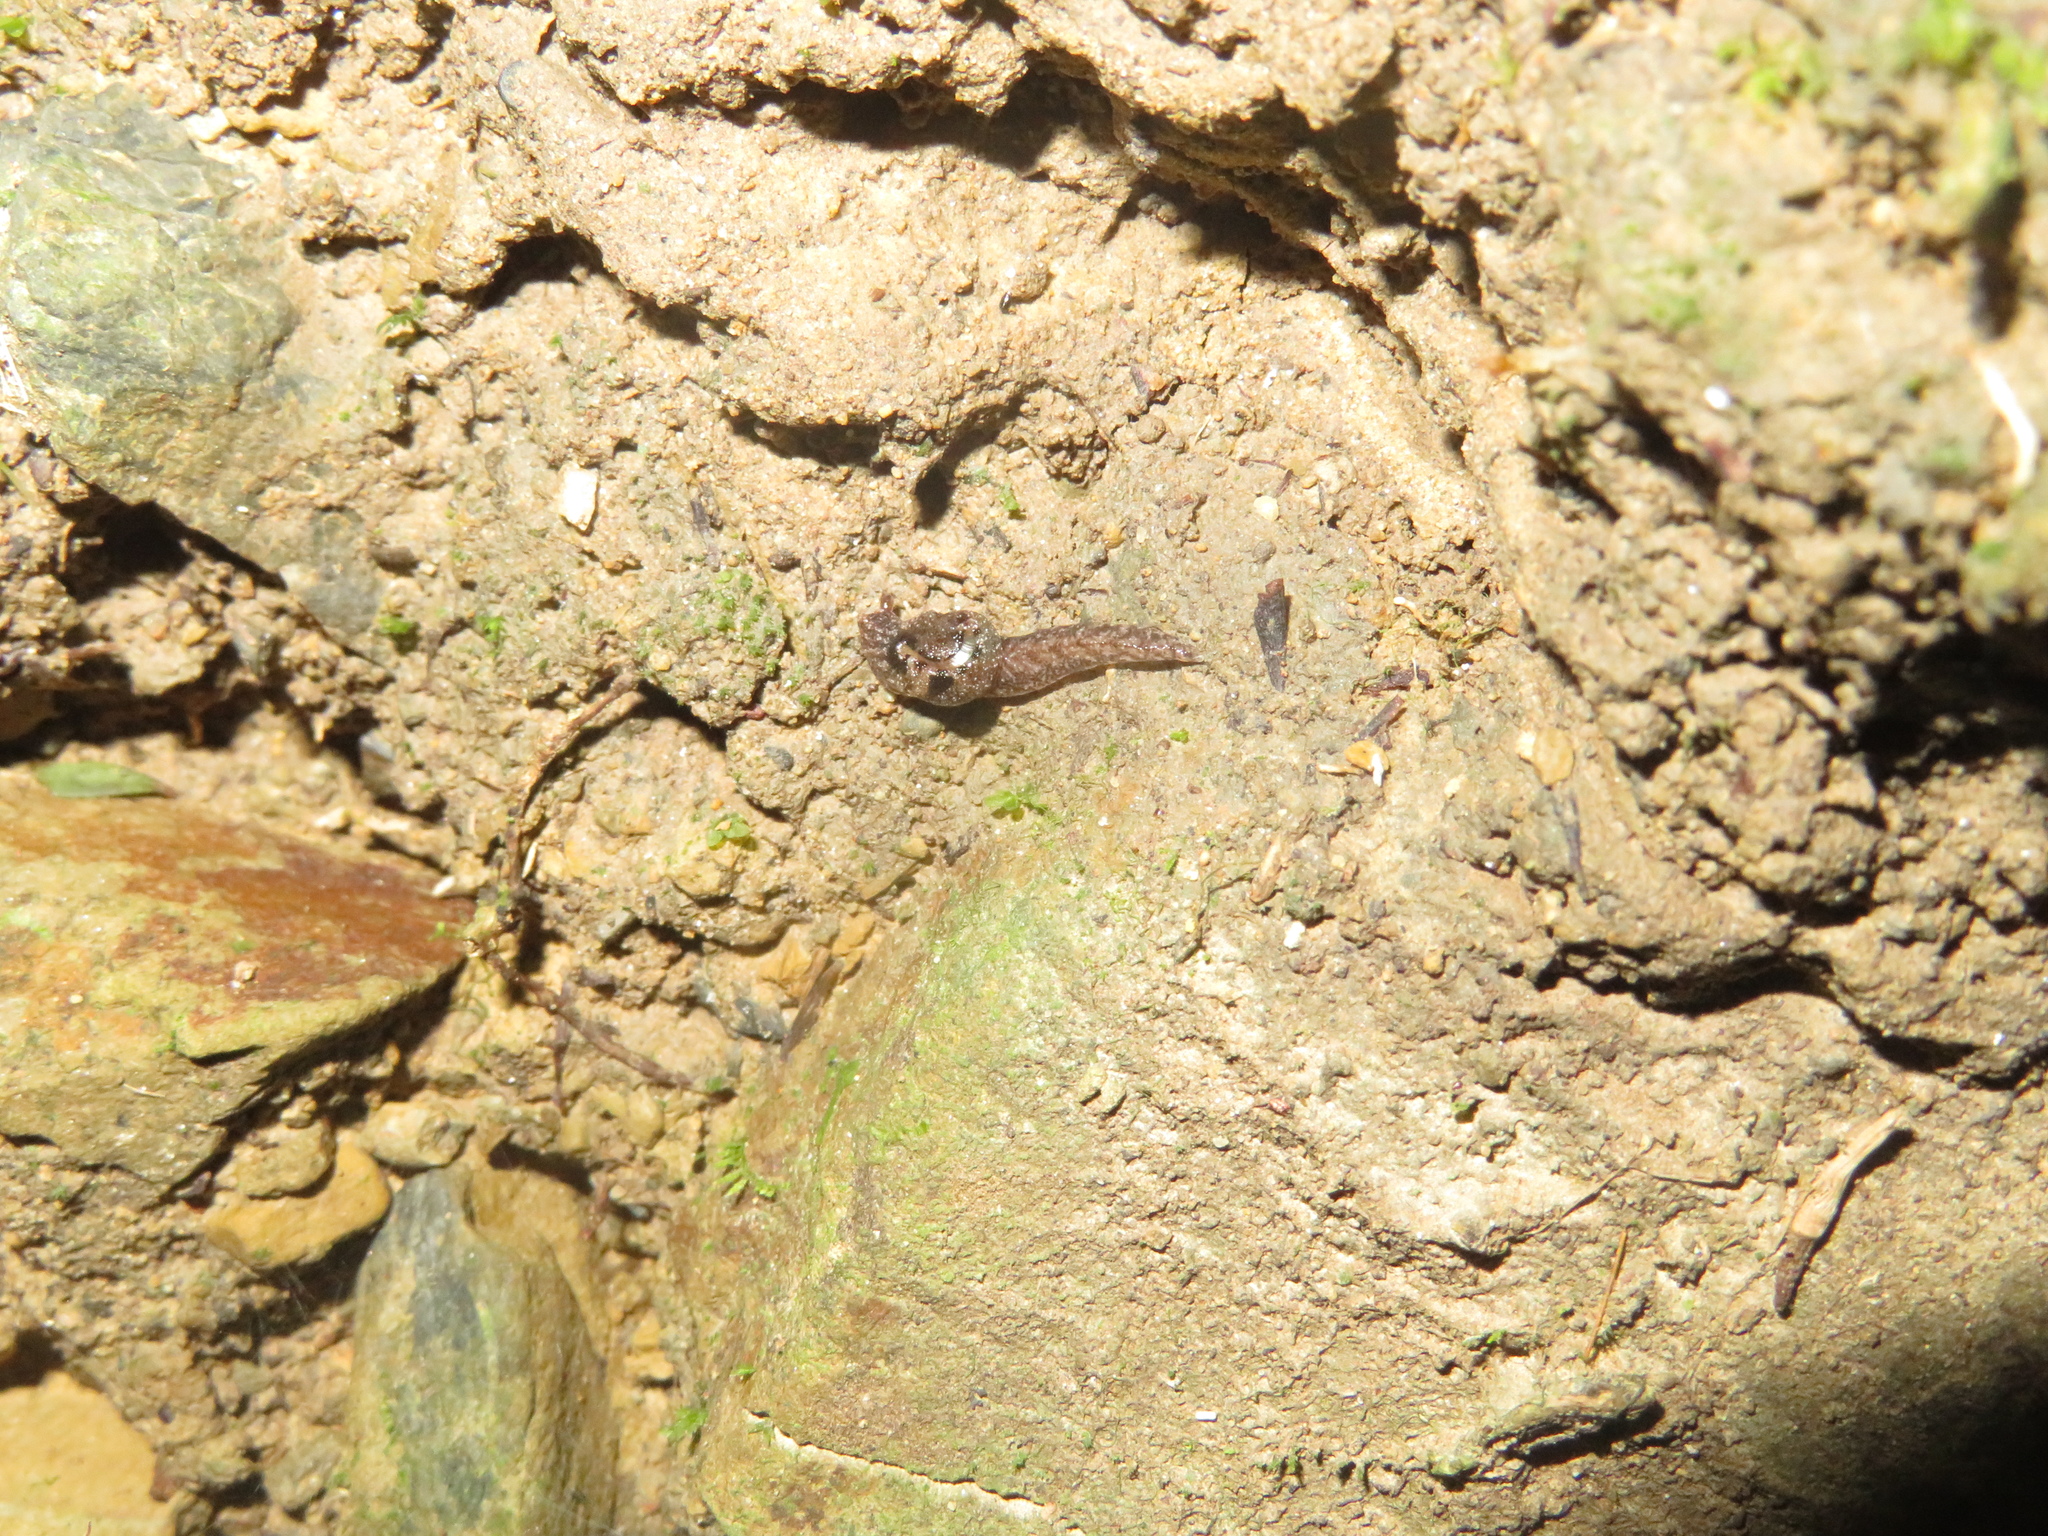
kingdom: Animalia
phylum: Mollusca
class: Gastropoda
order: Stylommatophora
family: Charopidae
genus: Otoconcha
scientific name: Otoconcha dimidiata
